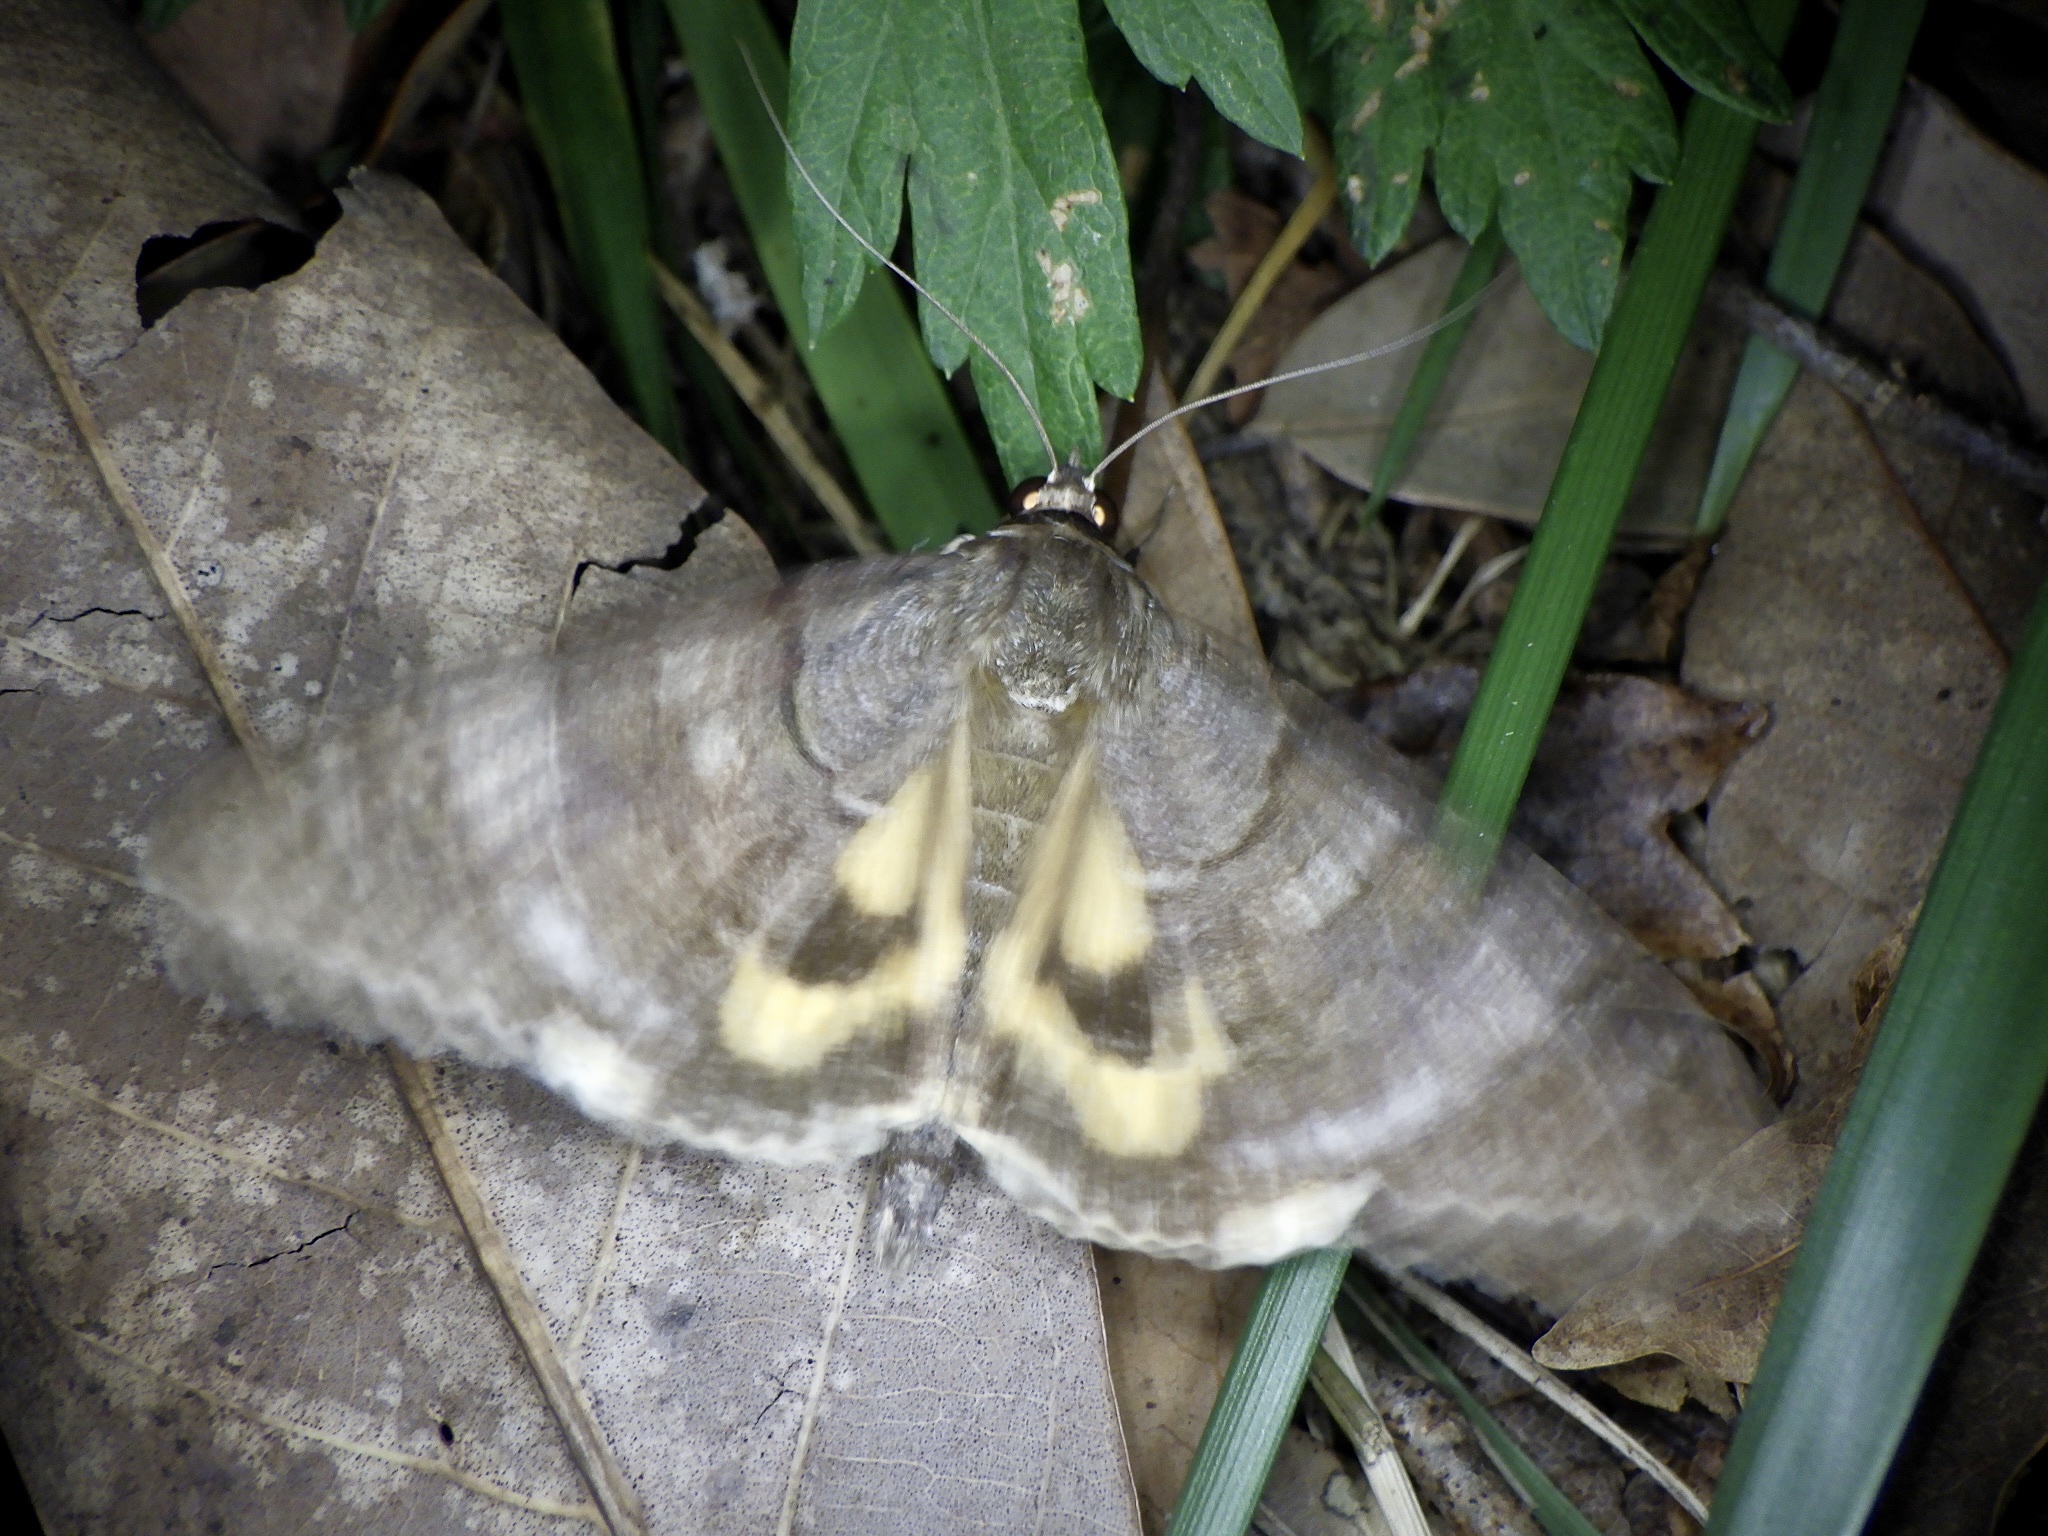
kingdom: Animalia
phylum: Arthropoda
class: Insecta
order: Lepidoptera
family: Erebidae
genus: Catocala
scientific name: Catocala jonasii
